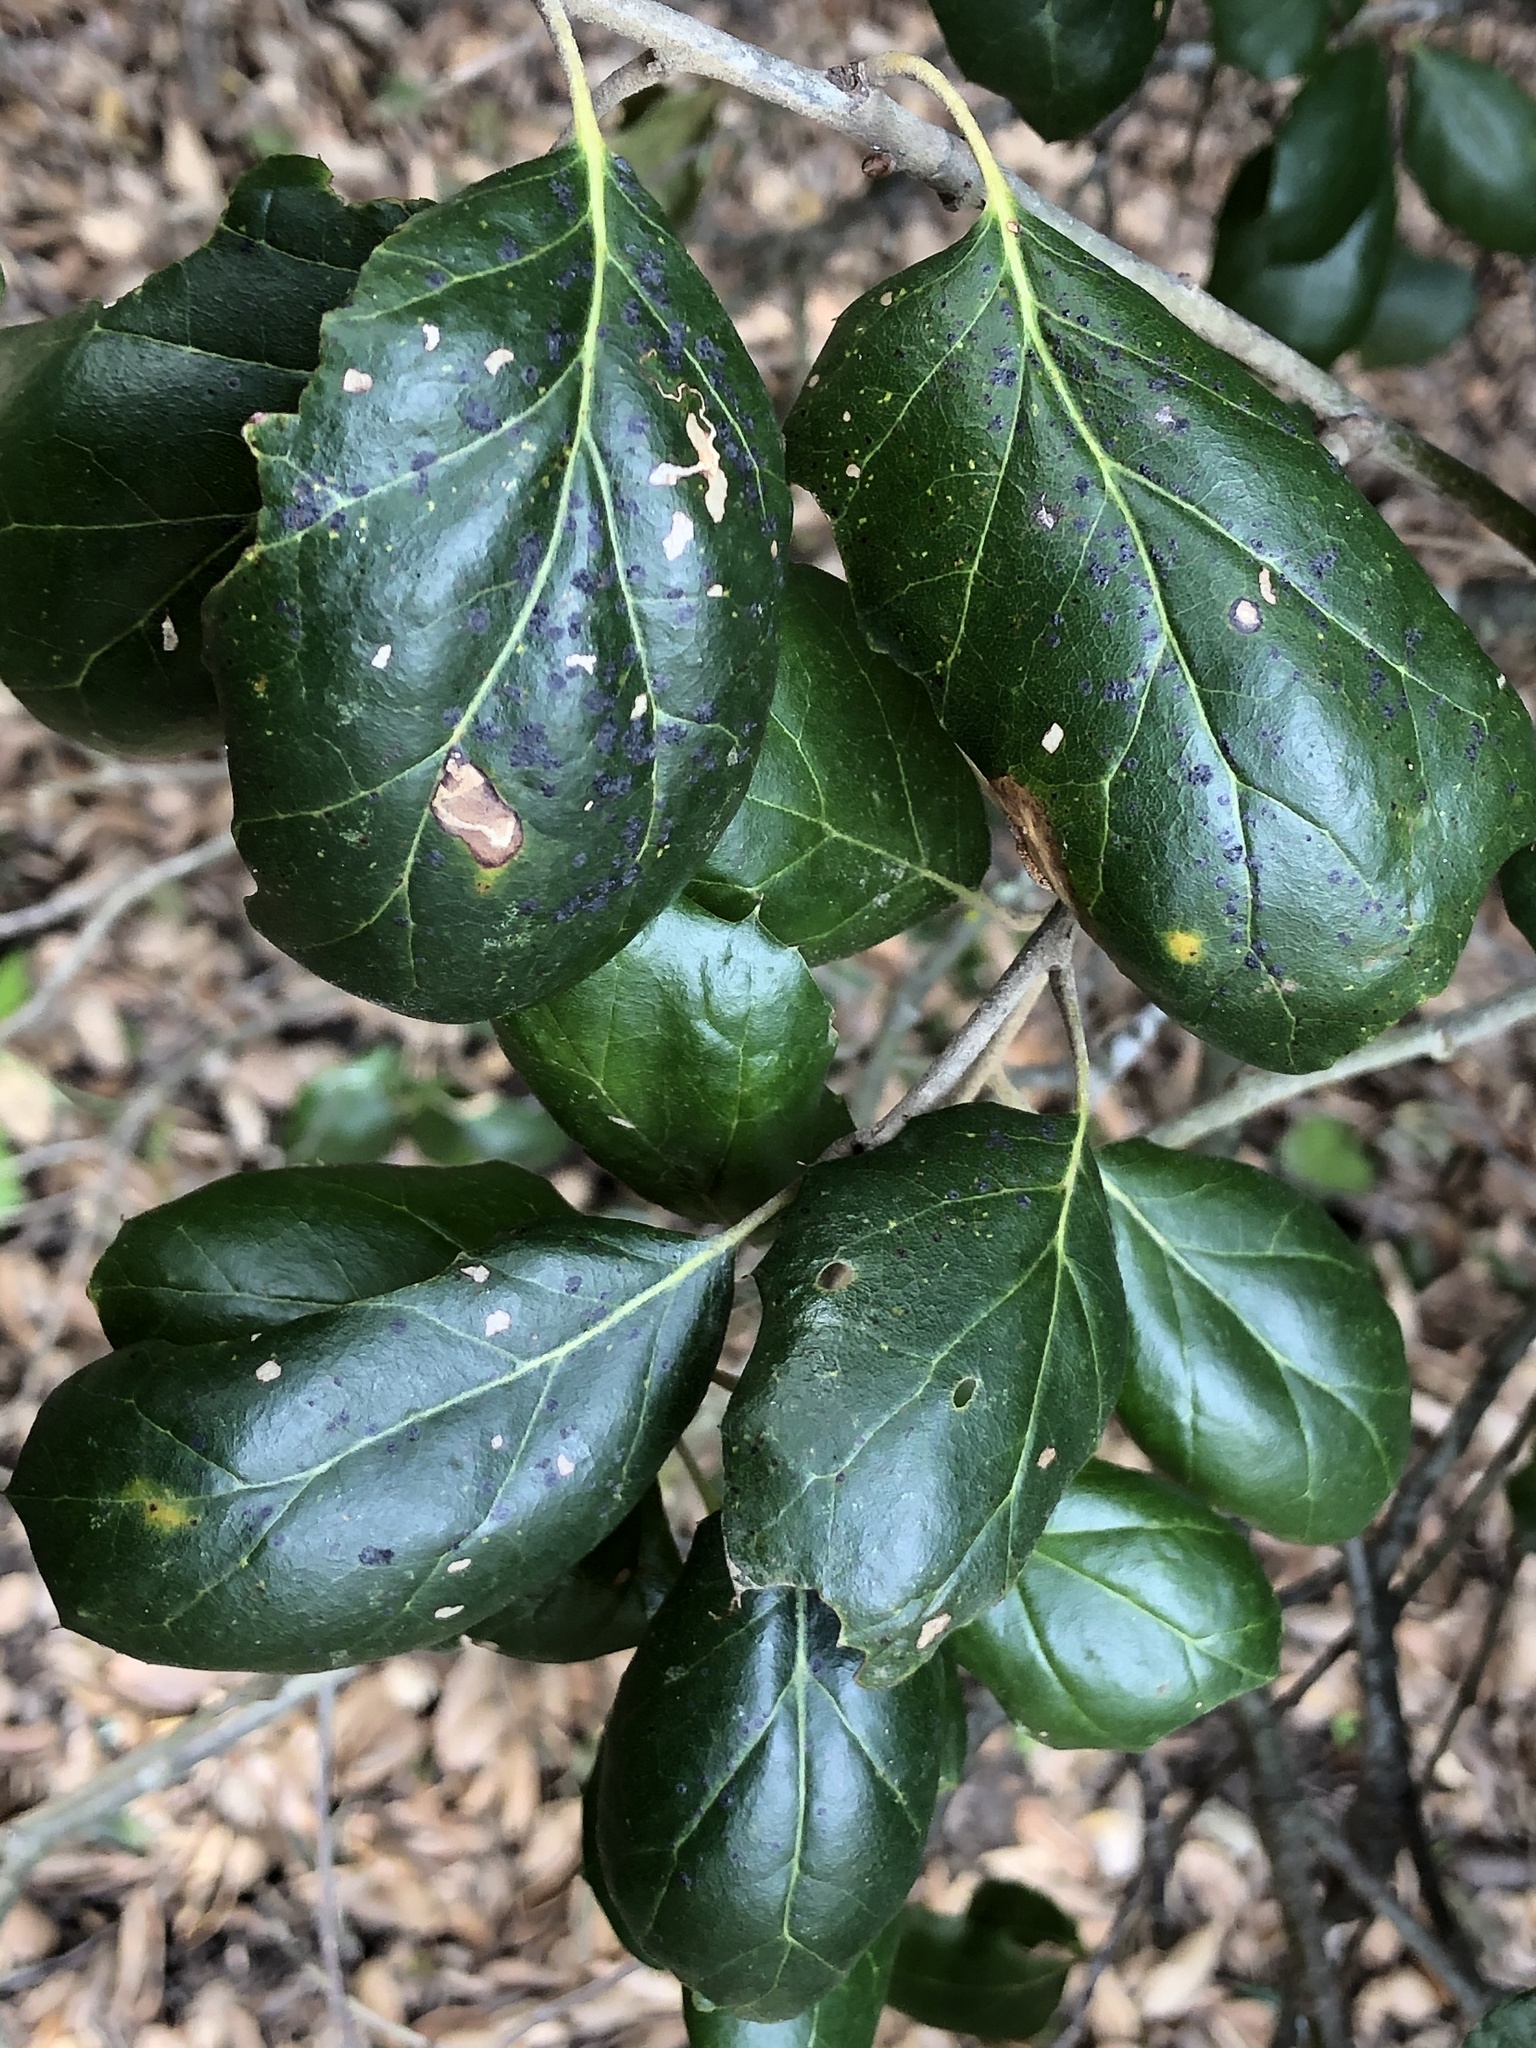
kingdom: Plantae
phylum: Tracheophyta
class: Magnoliopsida
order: Fagales
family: Fagaceae
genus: Quercus
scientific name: Quercus agrifolia
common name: California live oak
